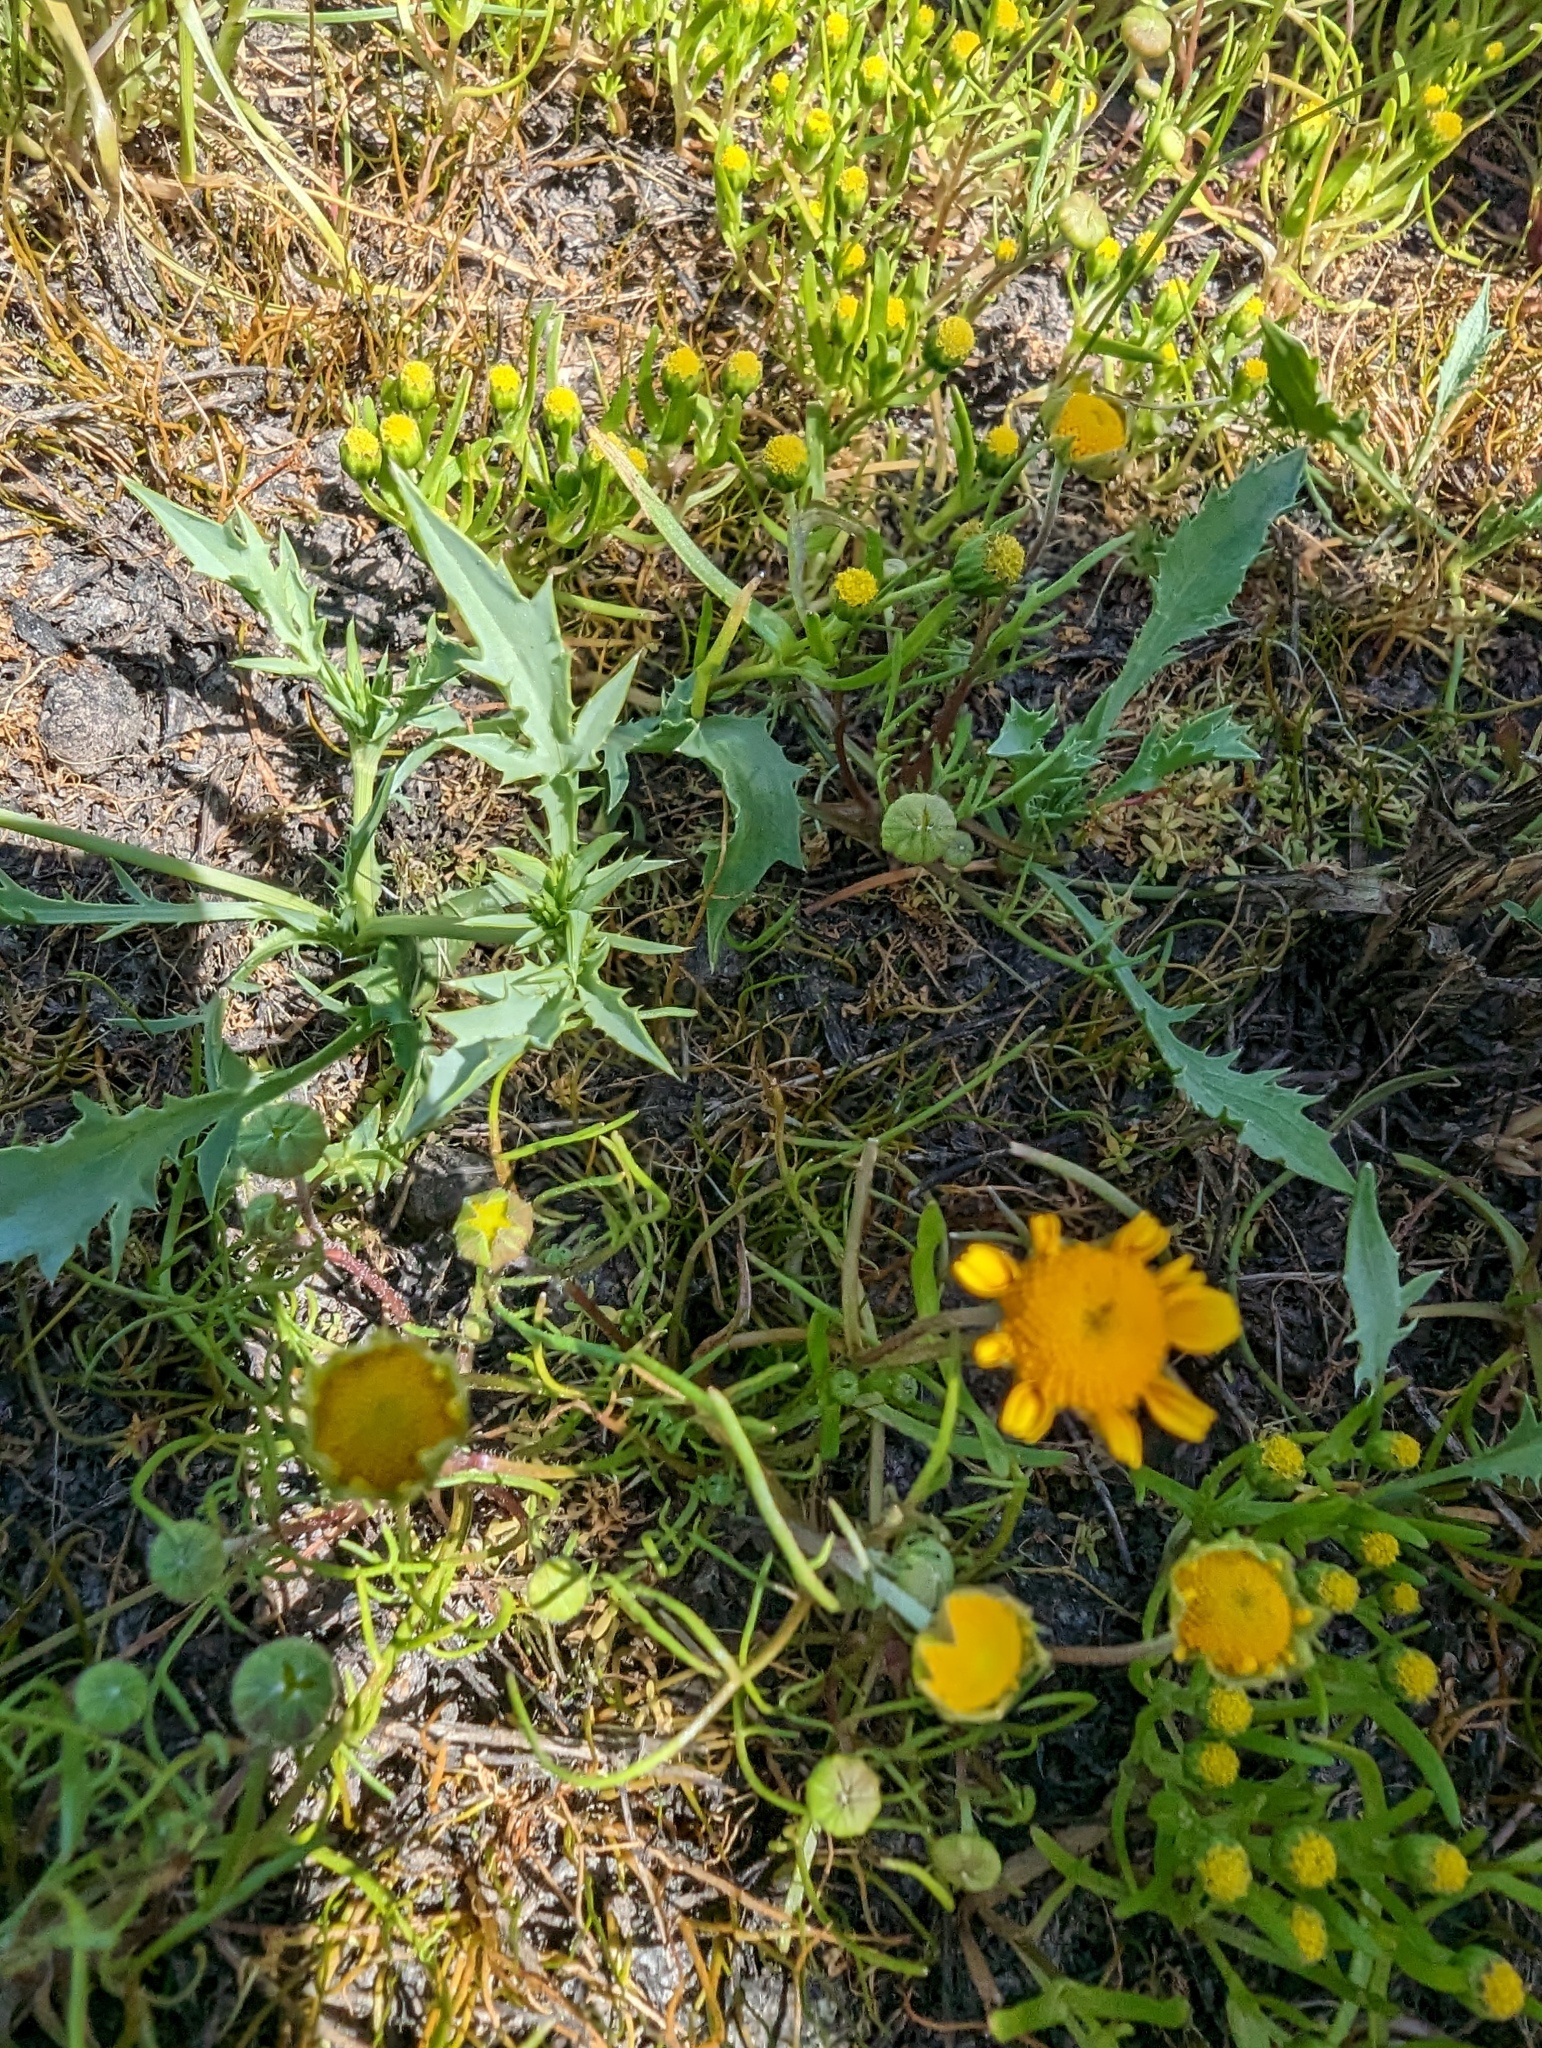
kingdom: Plantae
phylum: Tracheophyta
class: Magnoliopsida
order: Apiales
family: Apiaceae
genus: Eryngium
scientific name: Eryngium aristulatum
